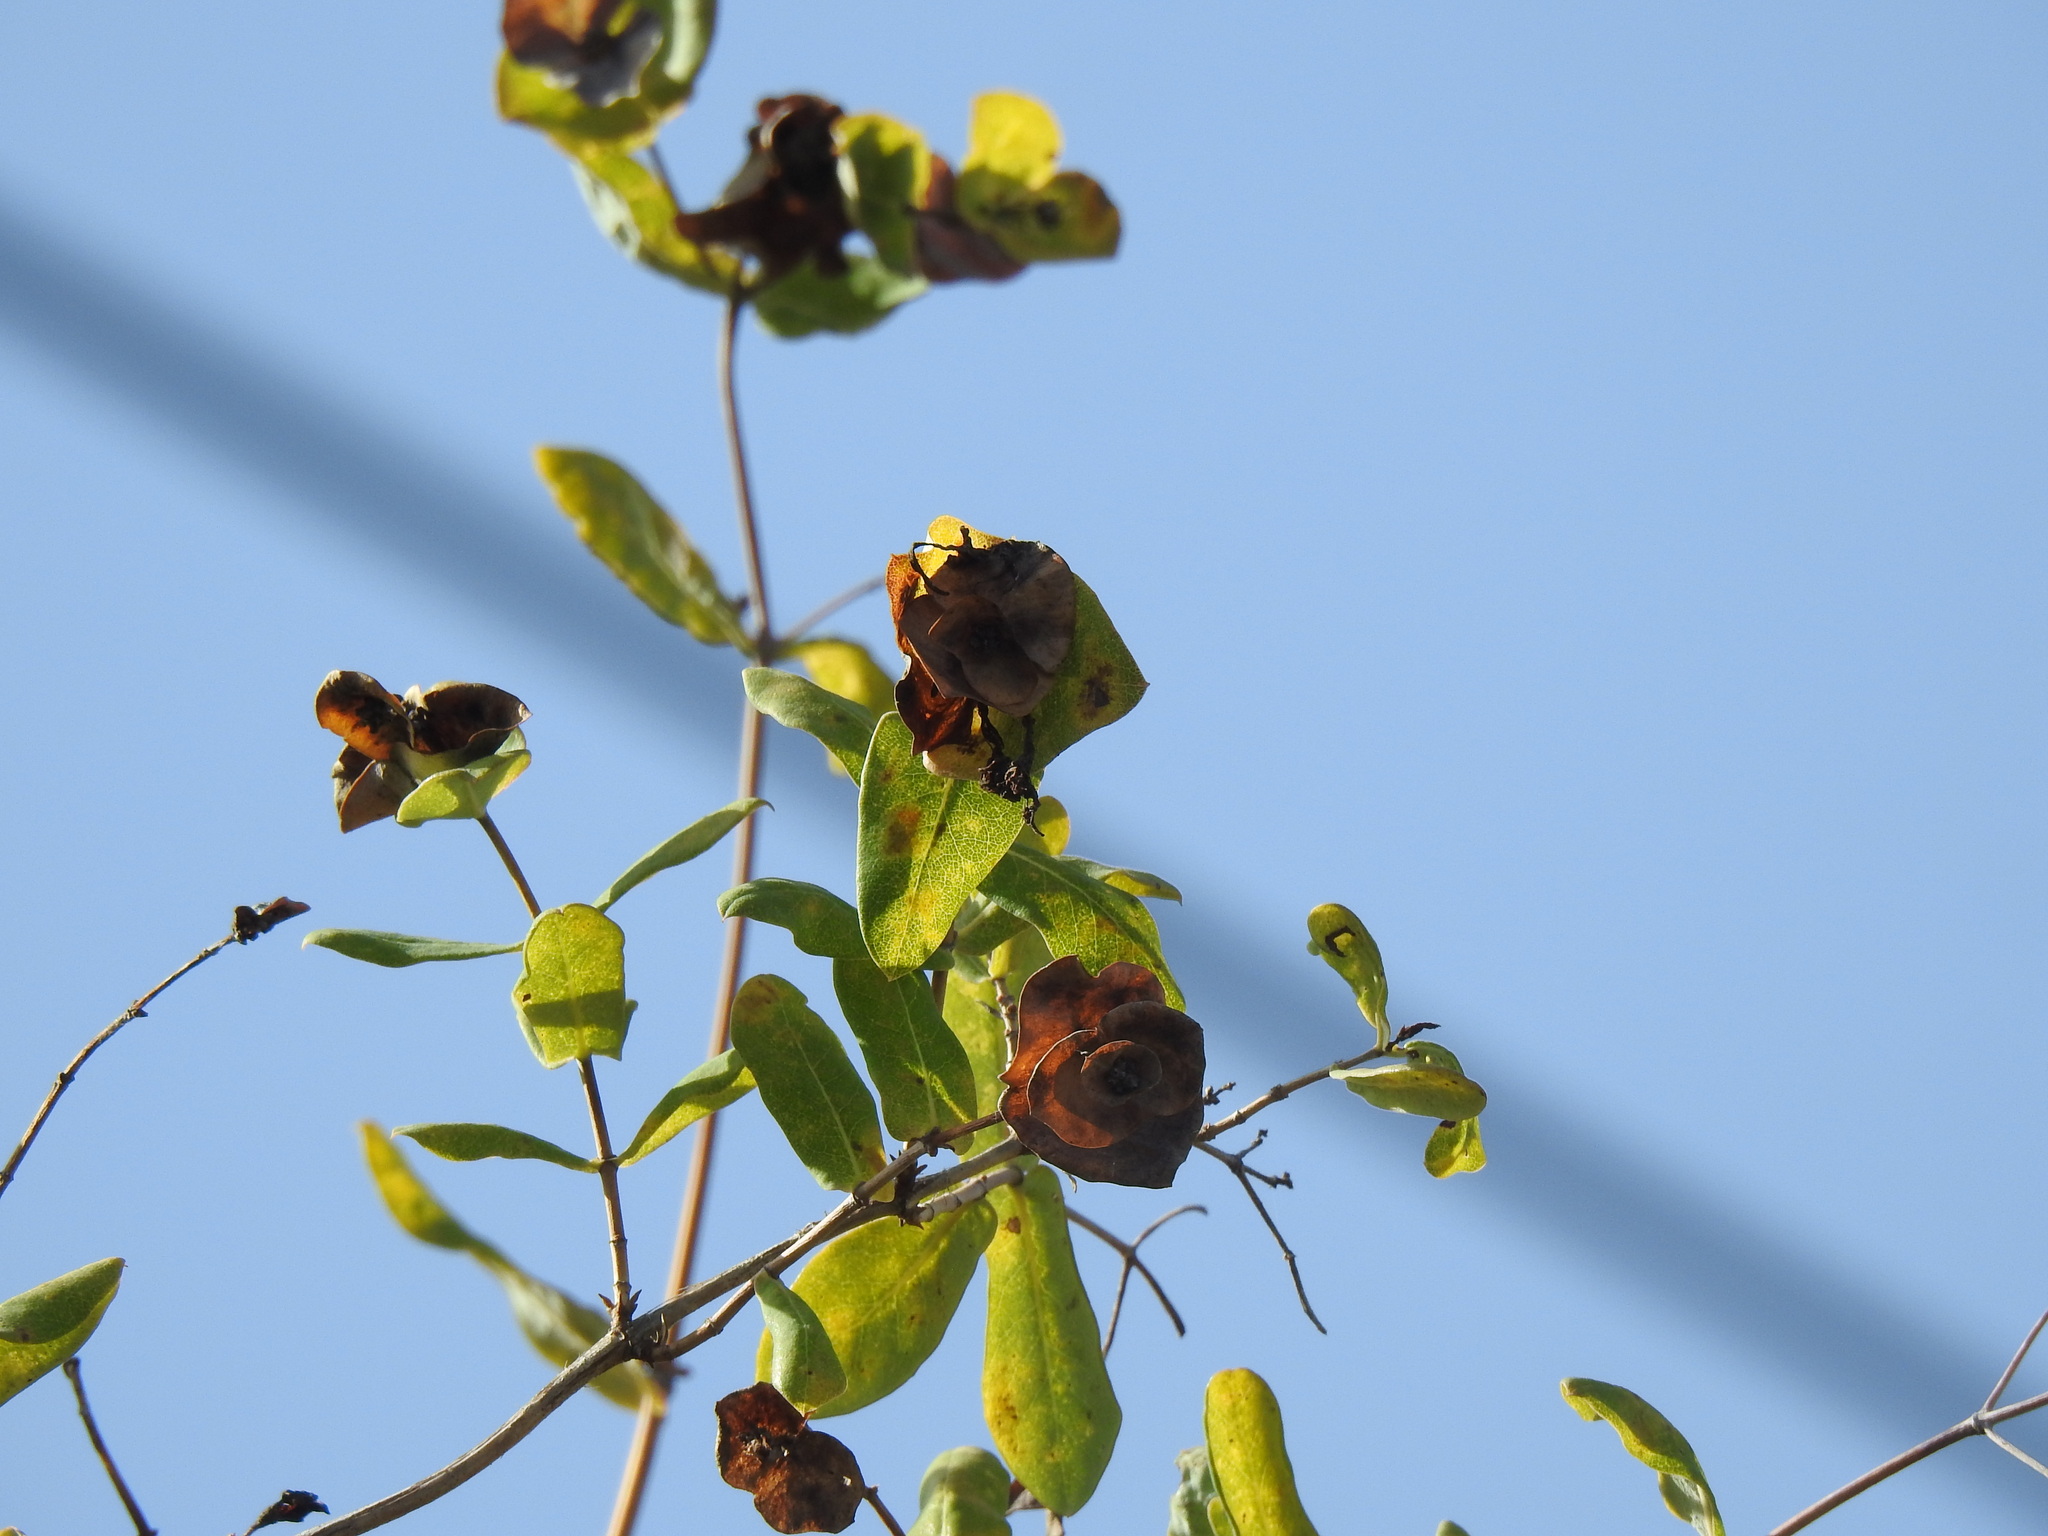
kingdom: Plantae
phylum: Tracheophyta
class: Magnoliopsida
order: Dipsacales
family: Caprifoliaceae
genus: Lonicera
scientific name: Lonicera implexa
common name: Minorca honeysuckle
